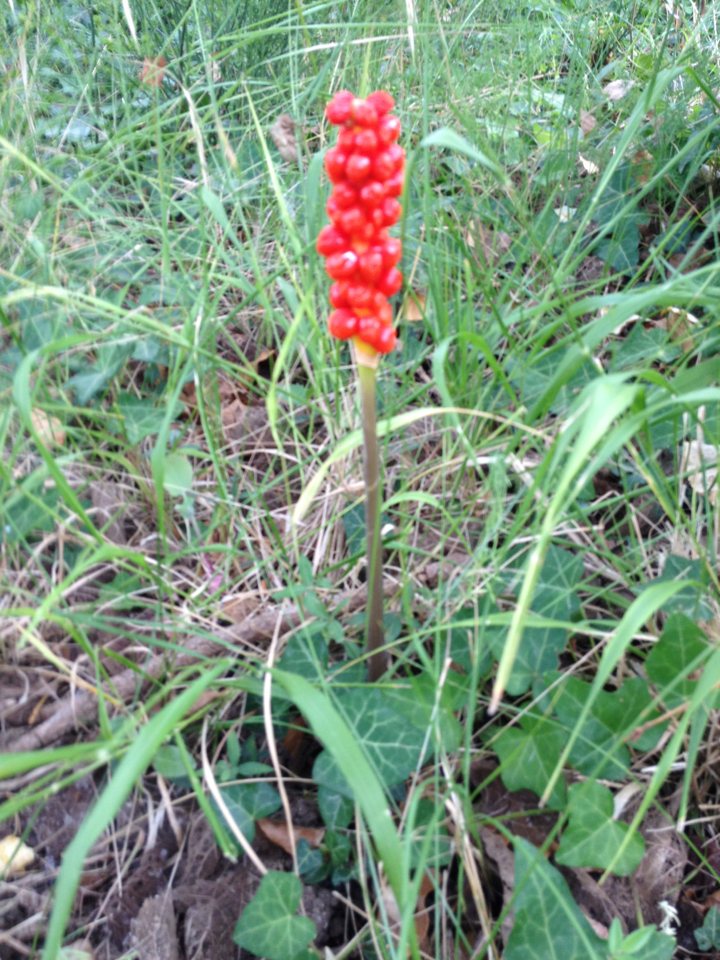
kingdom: Plantae
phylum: Tracheophyta
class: Liliopsida
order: Alismatales
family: Araceae
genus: Arum
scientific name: Arum
